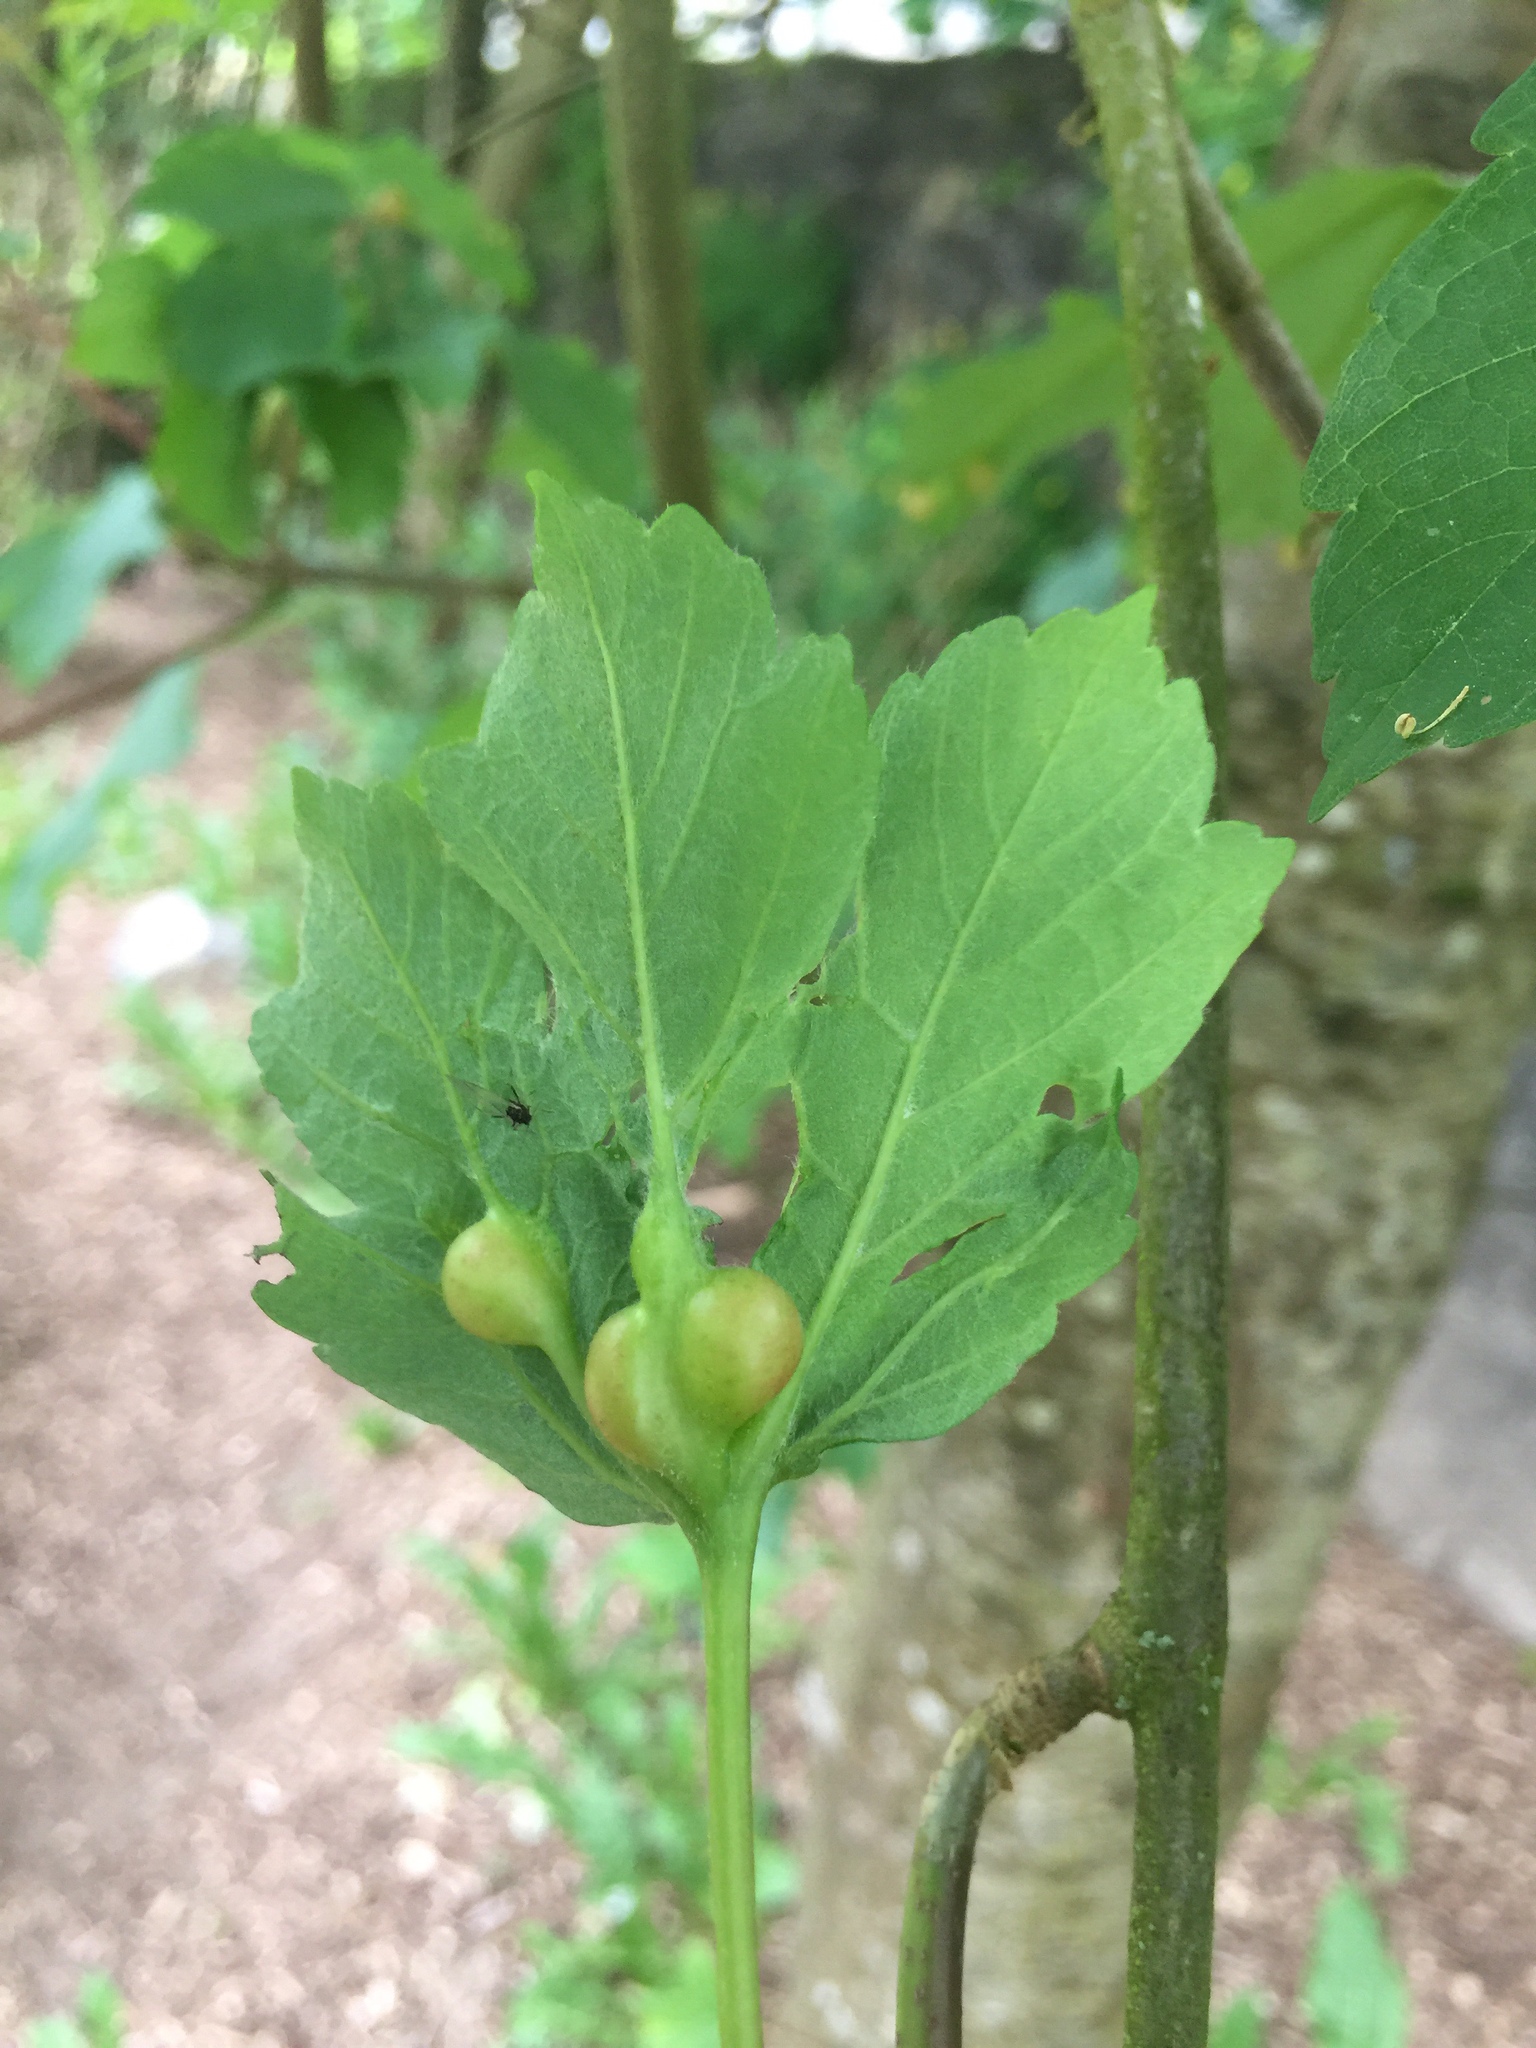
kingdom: Animalia
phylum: Arthropoda
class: Insecta
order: Hymenoptera
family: Cynipidae
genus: Pediaspis
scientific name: Pediaspis aceris
